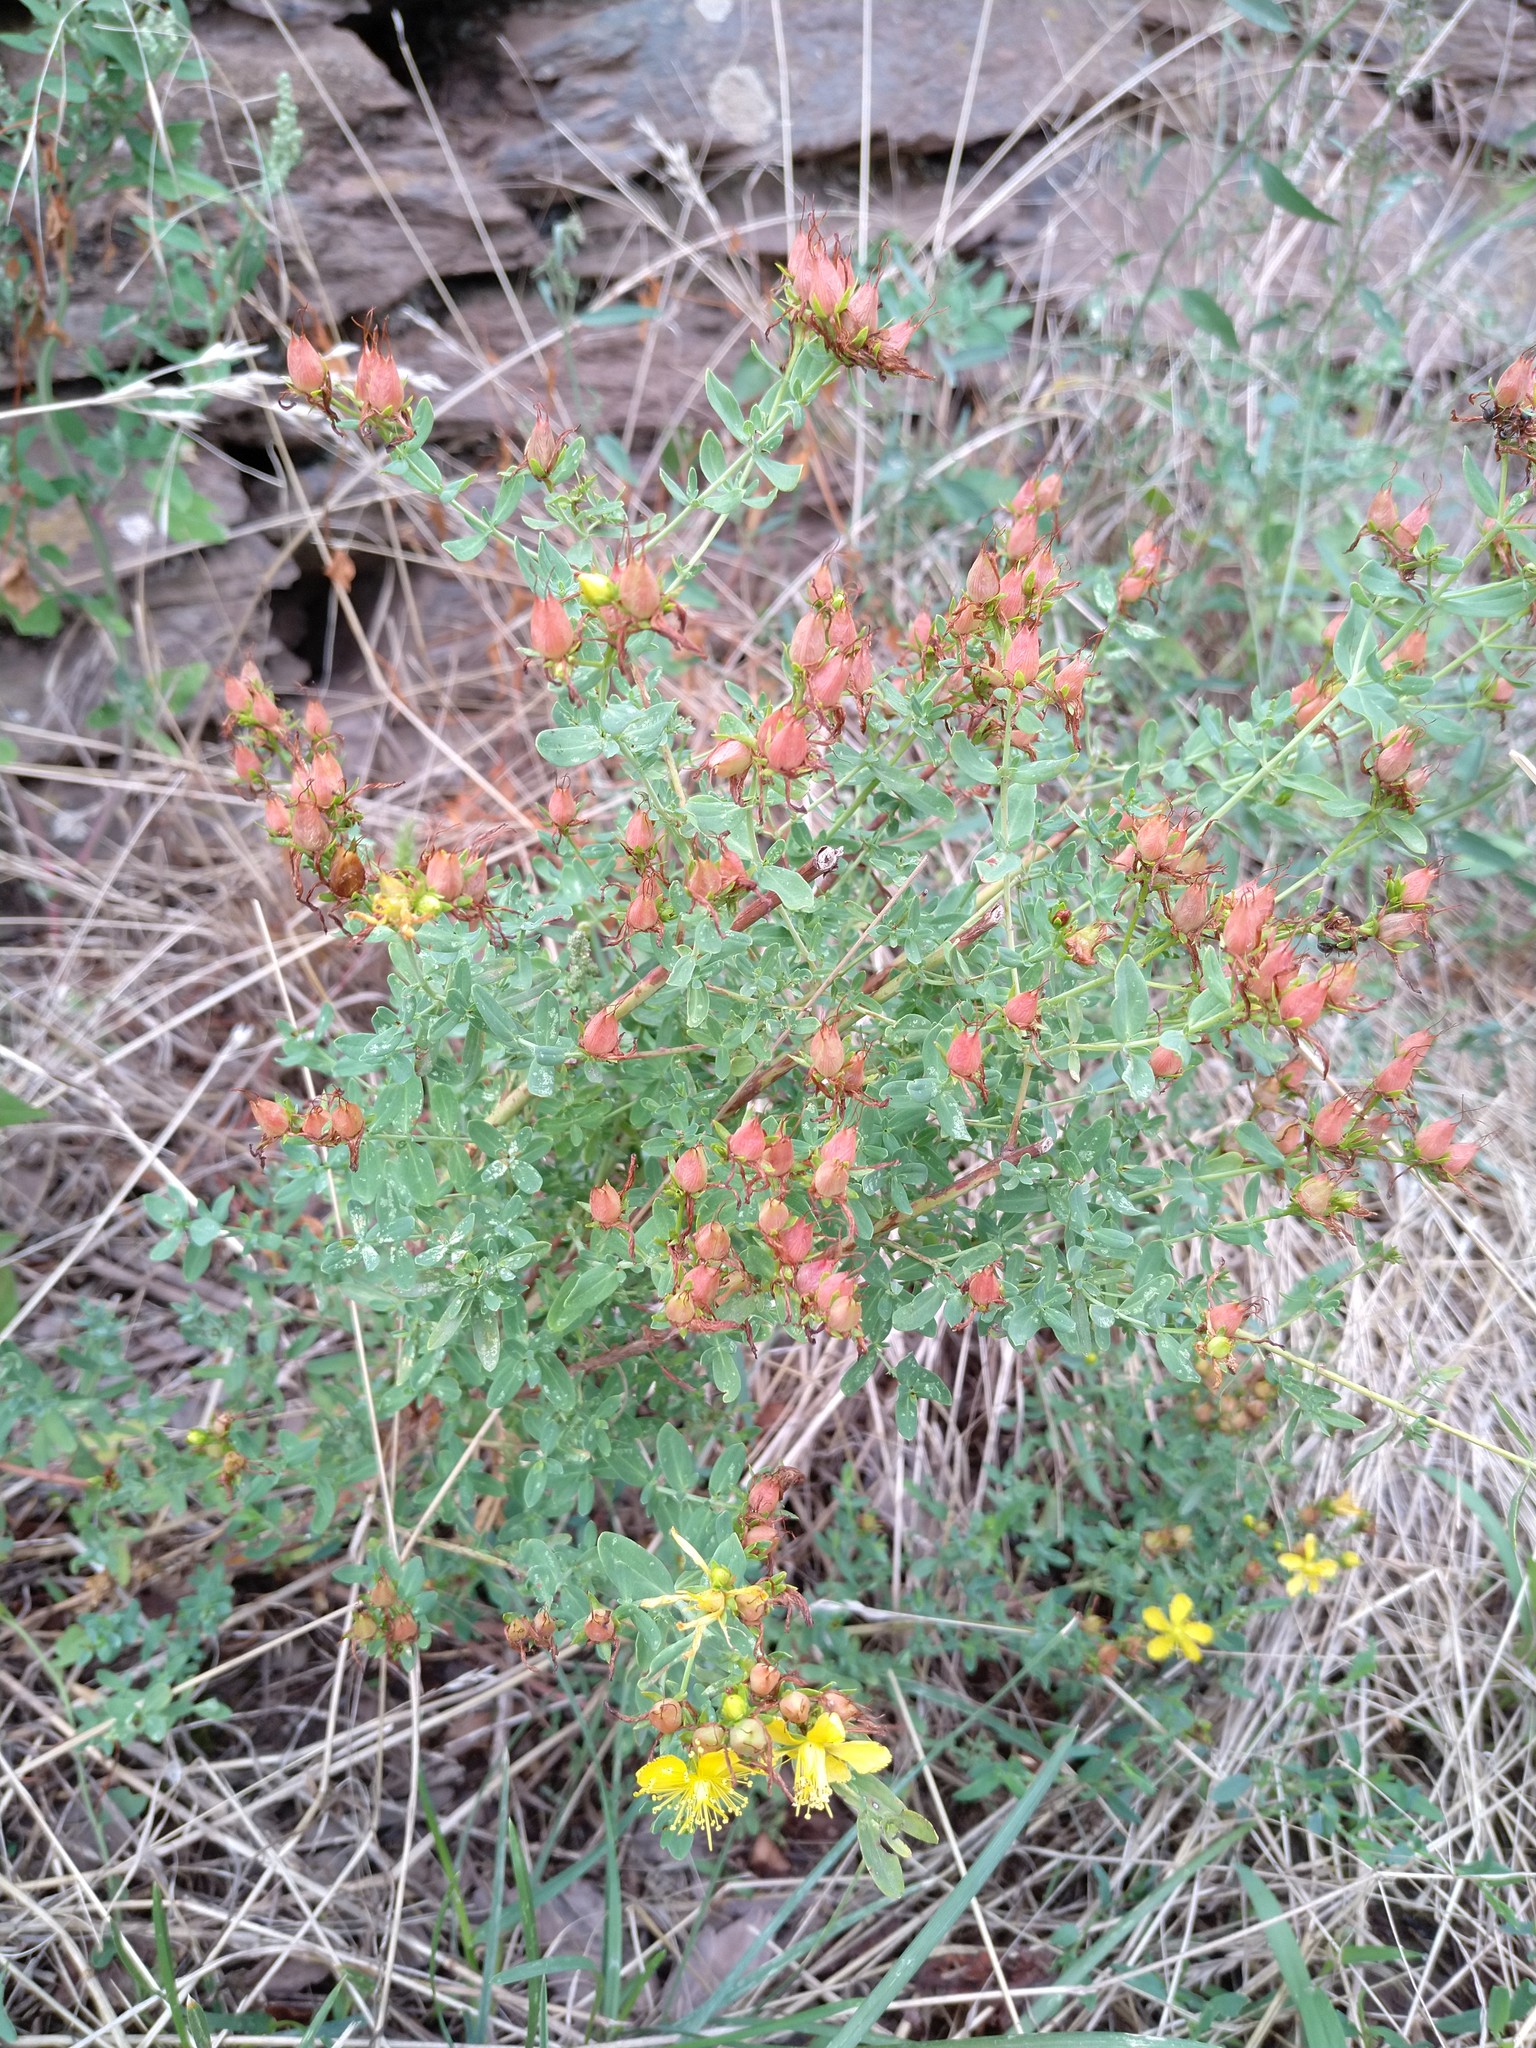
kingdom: Plantae
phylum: Tracheophyta
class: Magnoliopsida
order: Malpighiales
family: Hypericaceae
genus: Hypericum
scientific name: Hypericum perforatum
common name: Common st. johnswort
